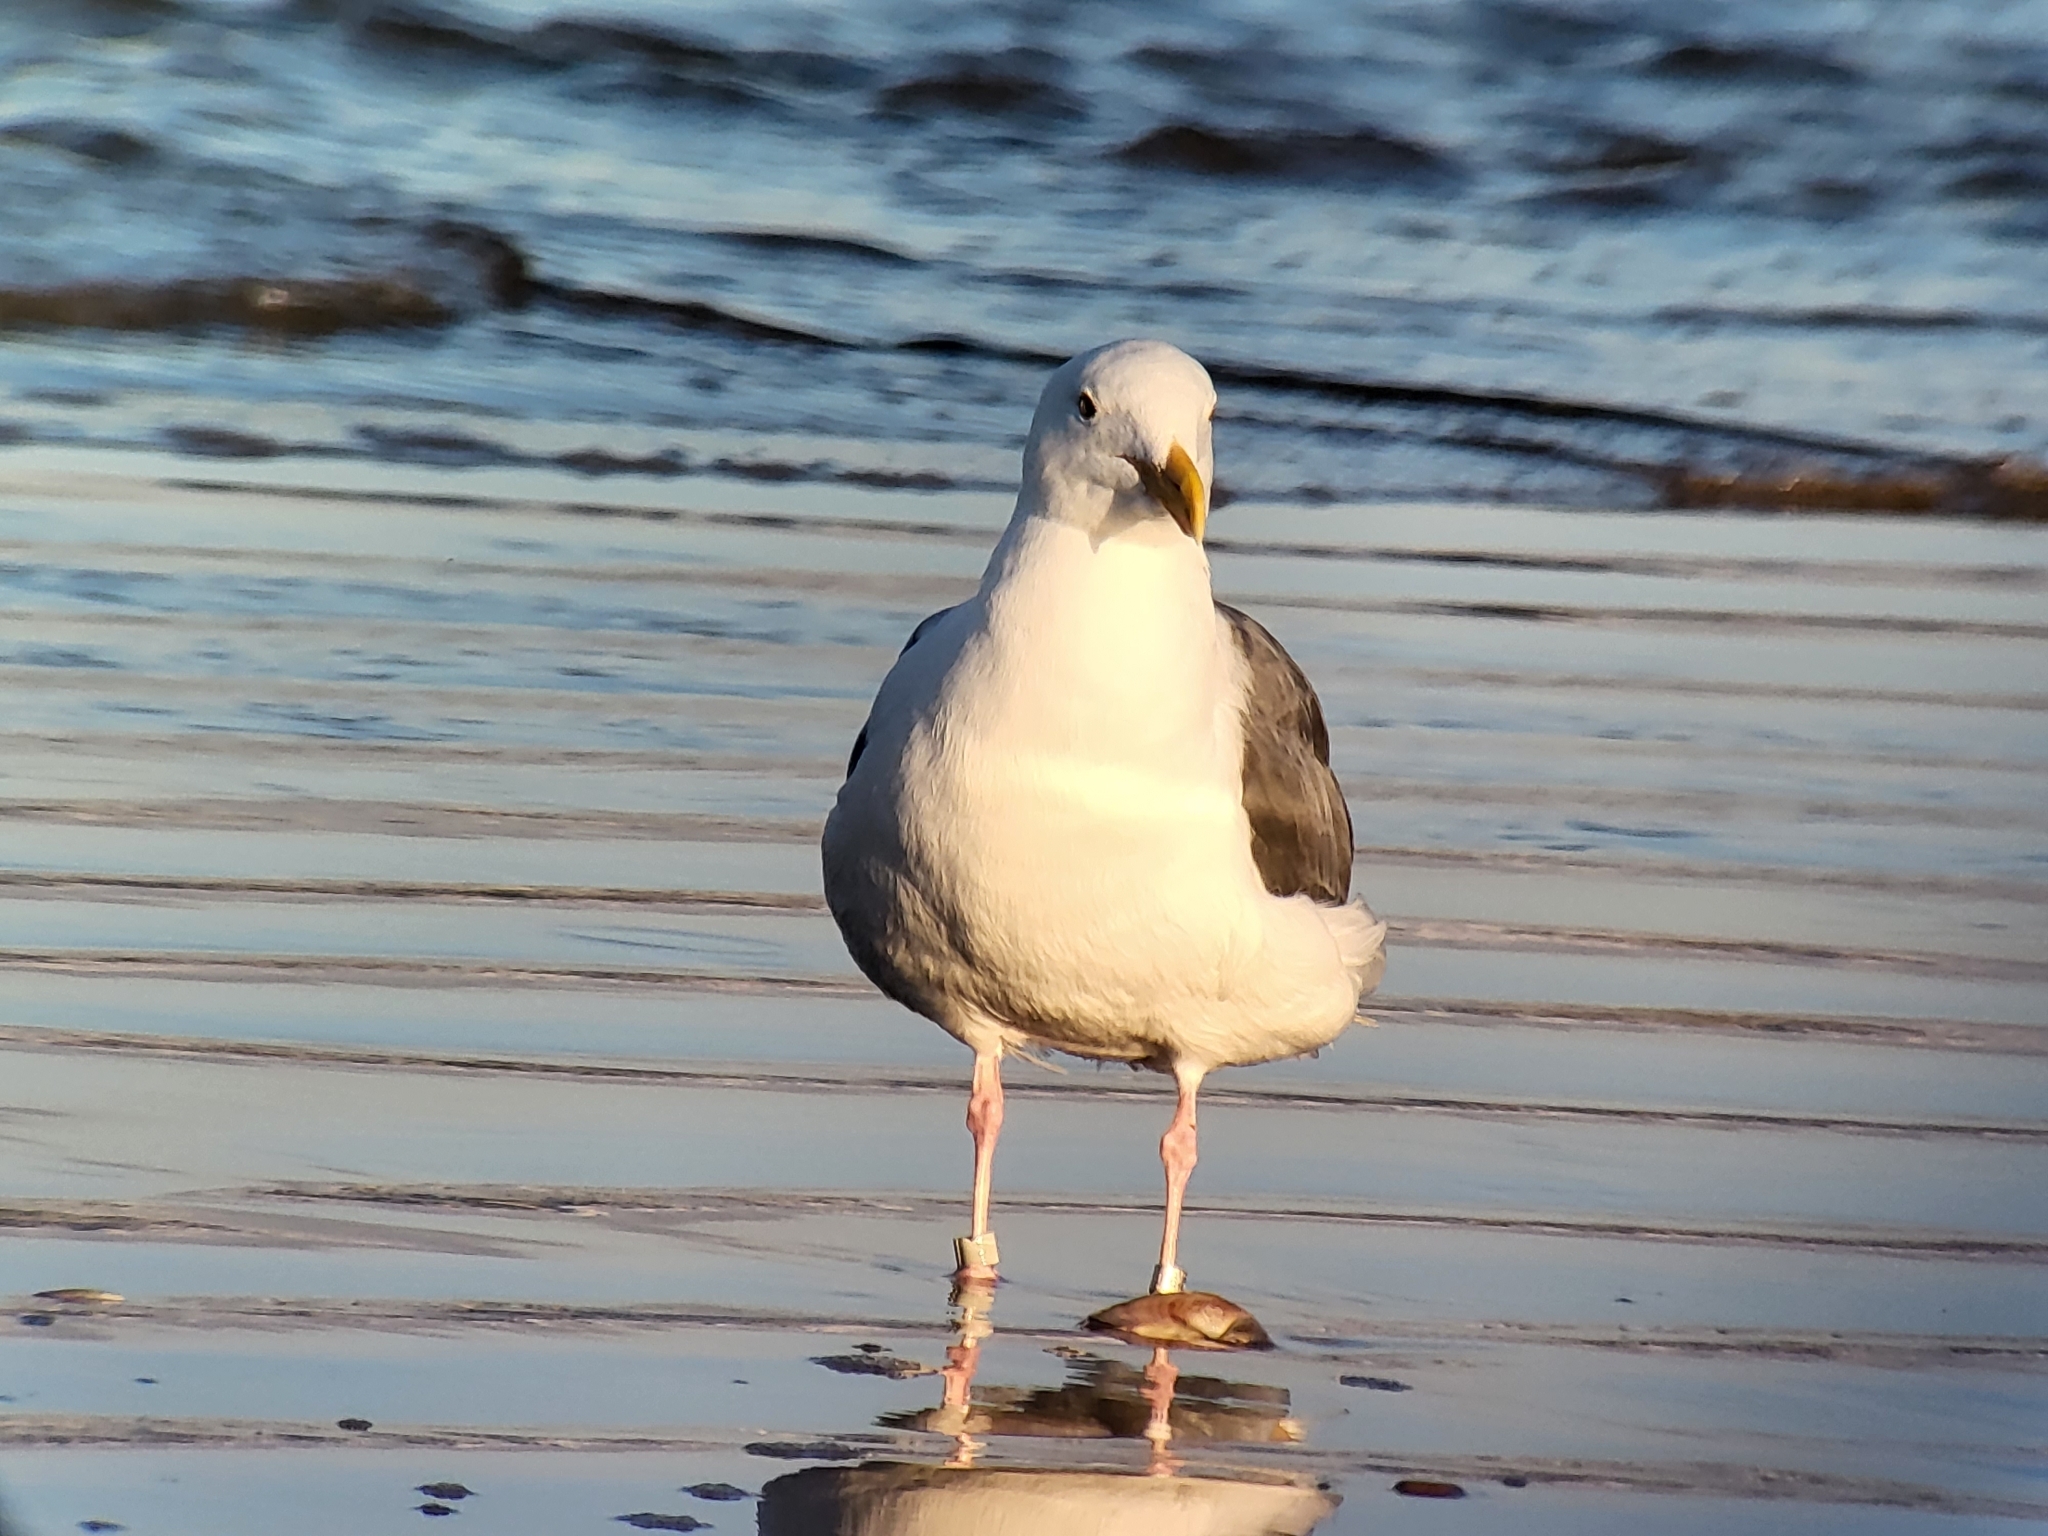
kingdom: Animalia
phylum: Chordata
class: Aves
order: Charadriiformes
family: Laridae
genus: Larus
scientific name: Larus occidentalis
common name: Western gull
